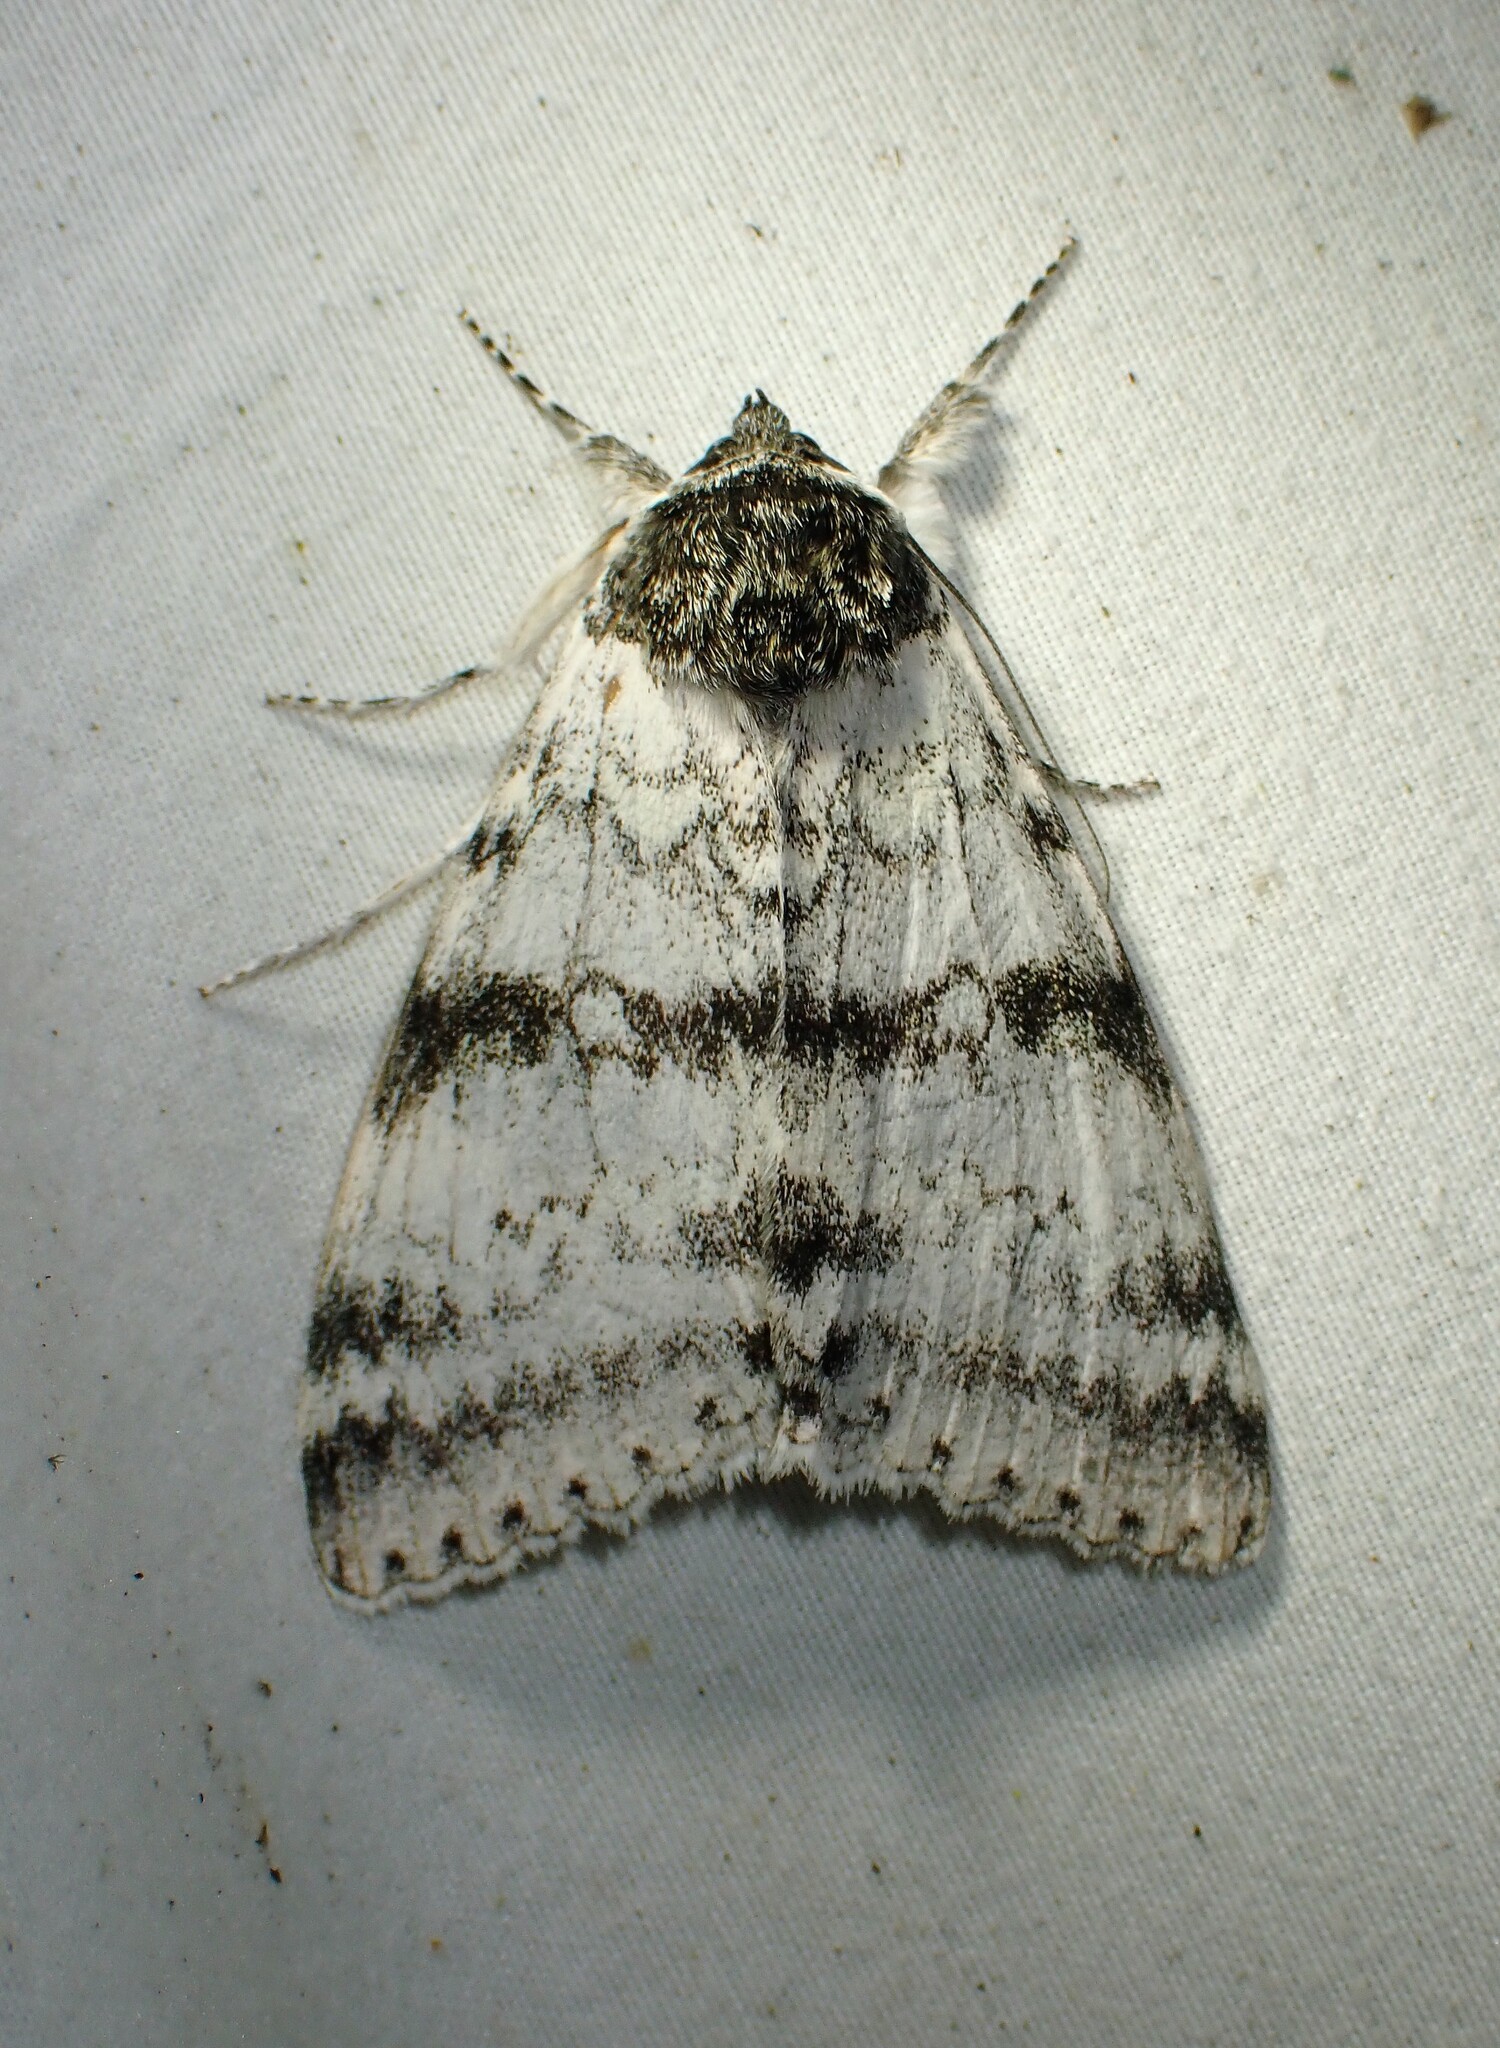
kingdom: Animalia
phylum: Arthropoda
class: Insecta
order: Lepidoptera
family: Erebidae
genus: Catocala
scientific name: Catocala relicta
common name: White underwing
